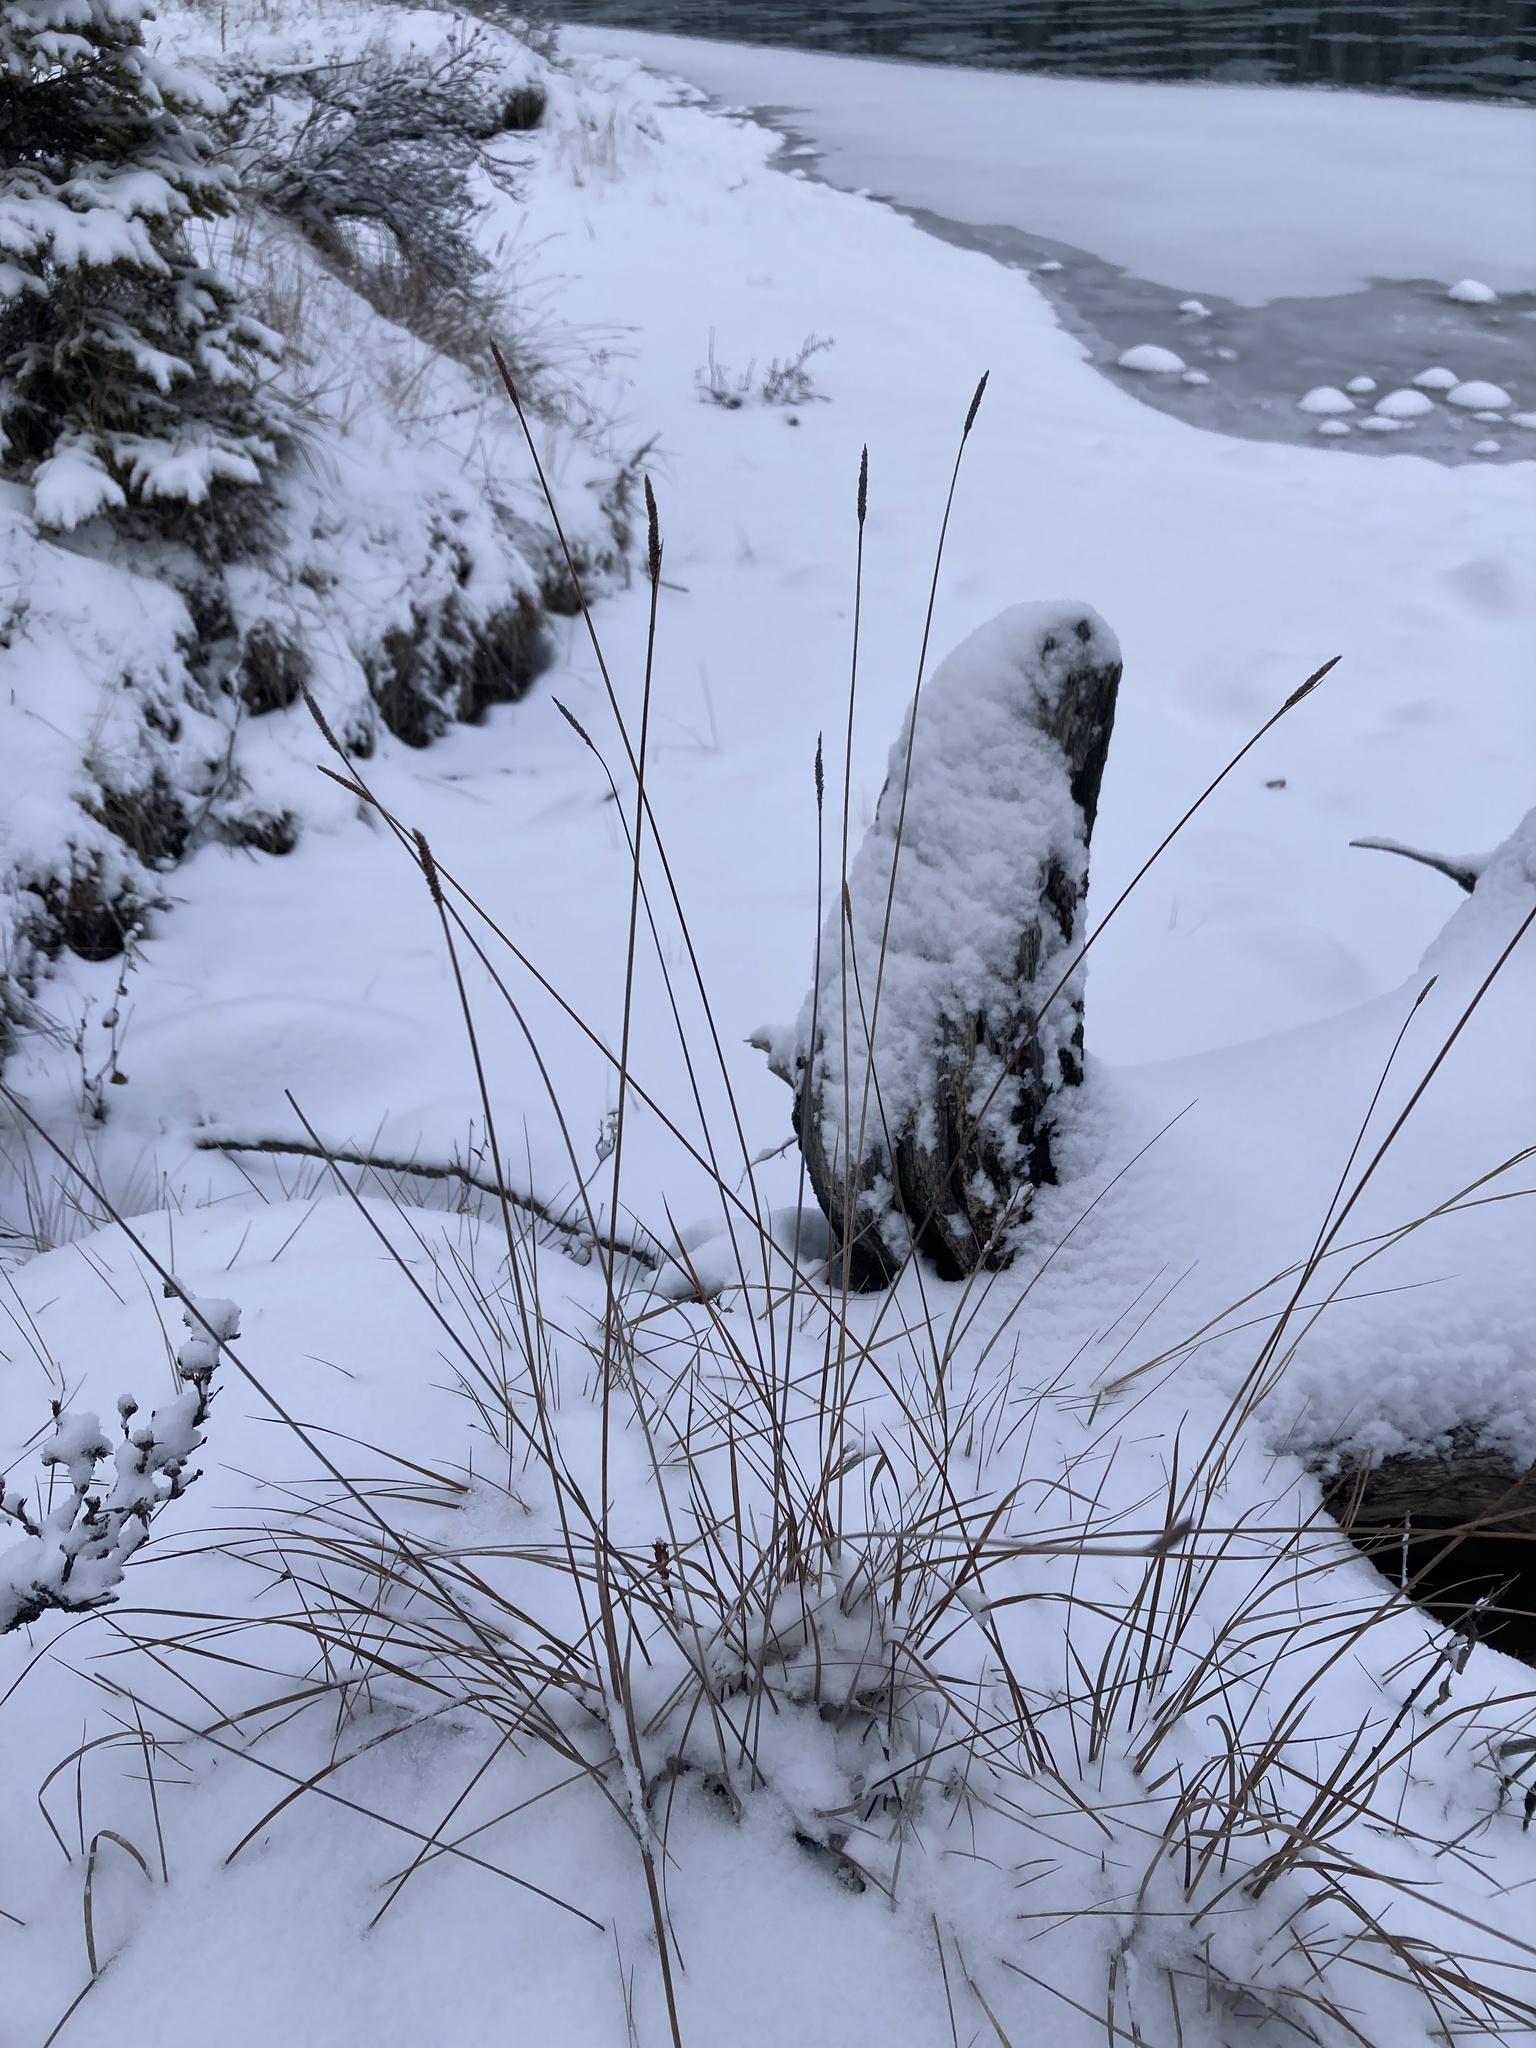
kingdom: Plantae
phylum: Tracheophyta
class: Liliopsida
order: Poales
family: Cyperaceae
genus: Carex
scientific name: Carex scirpoidea
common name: Canada single-spike sedge
